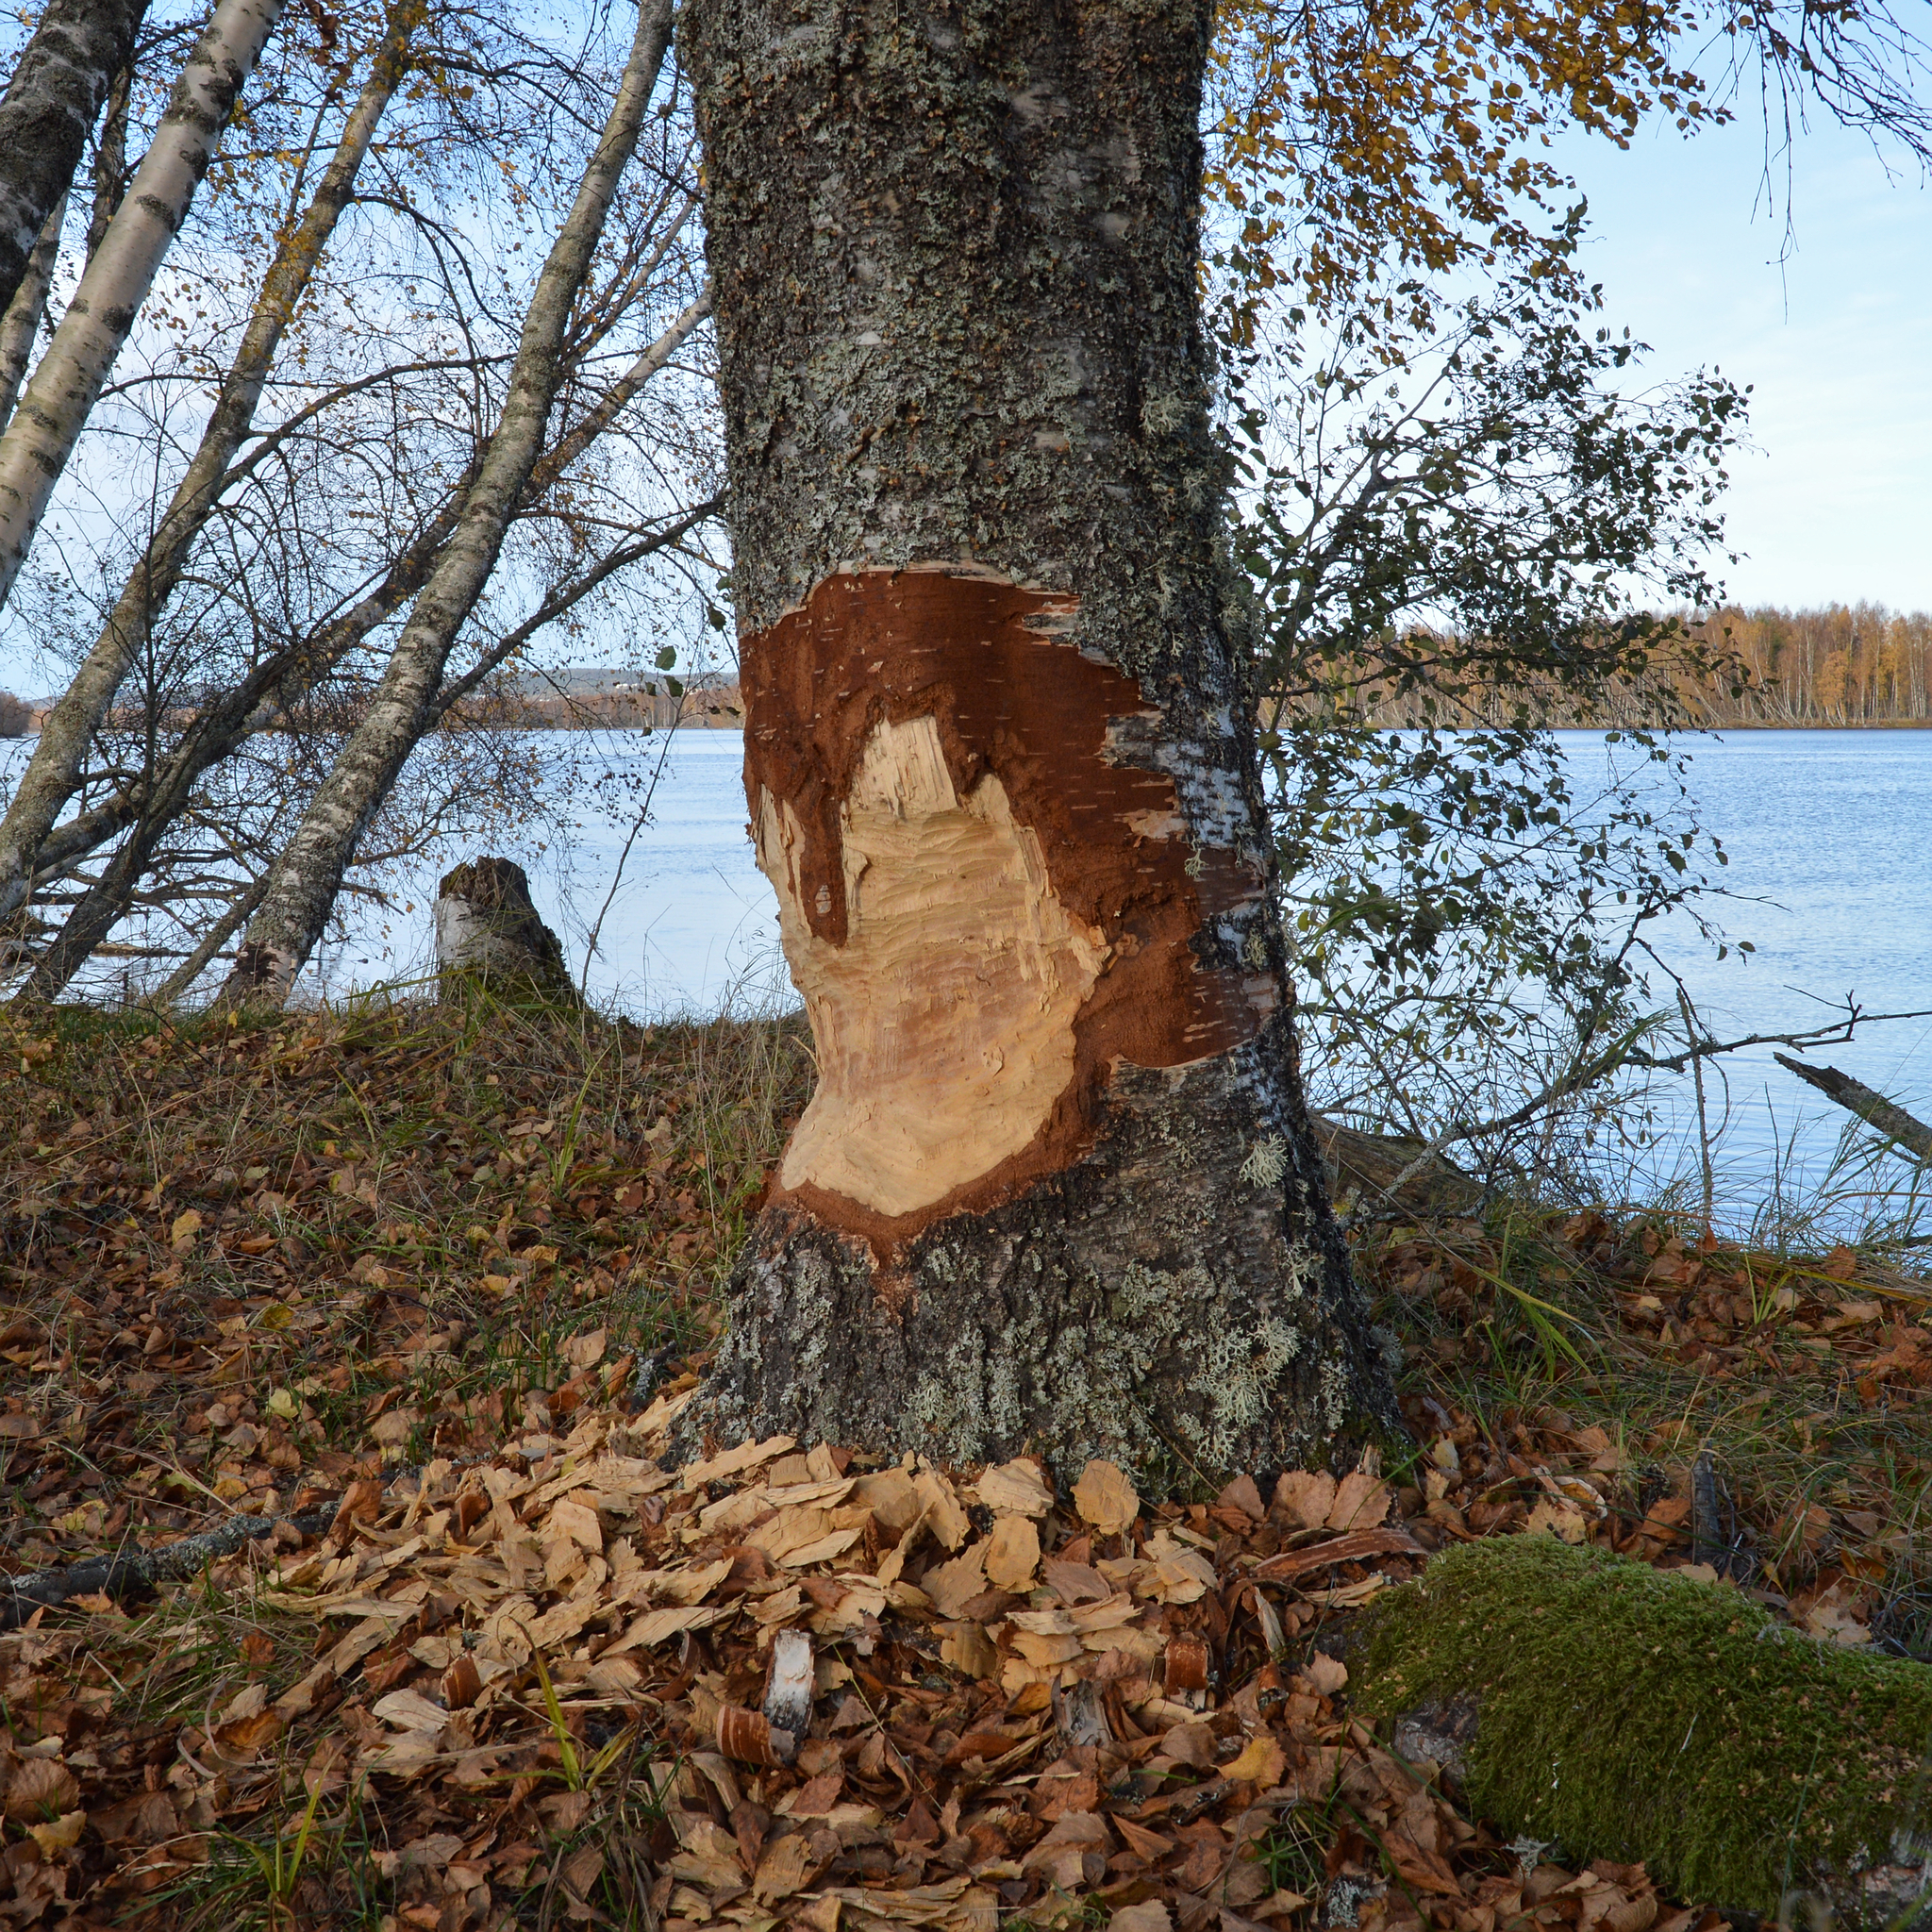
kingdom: Animalia
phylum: Chordata
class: Mammalia
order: Rodentia
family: Castoridae
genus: Castor
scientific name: Castor fiber
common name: Eurasian beaver
